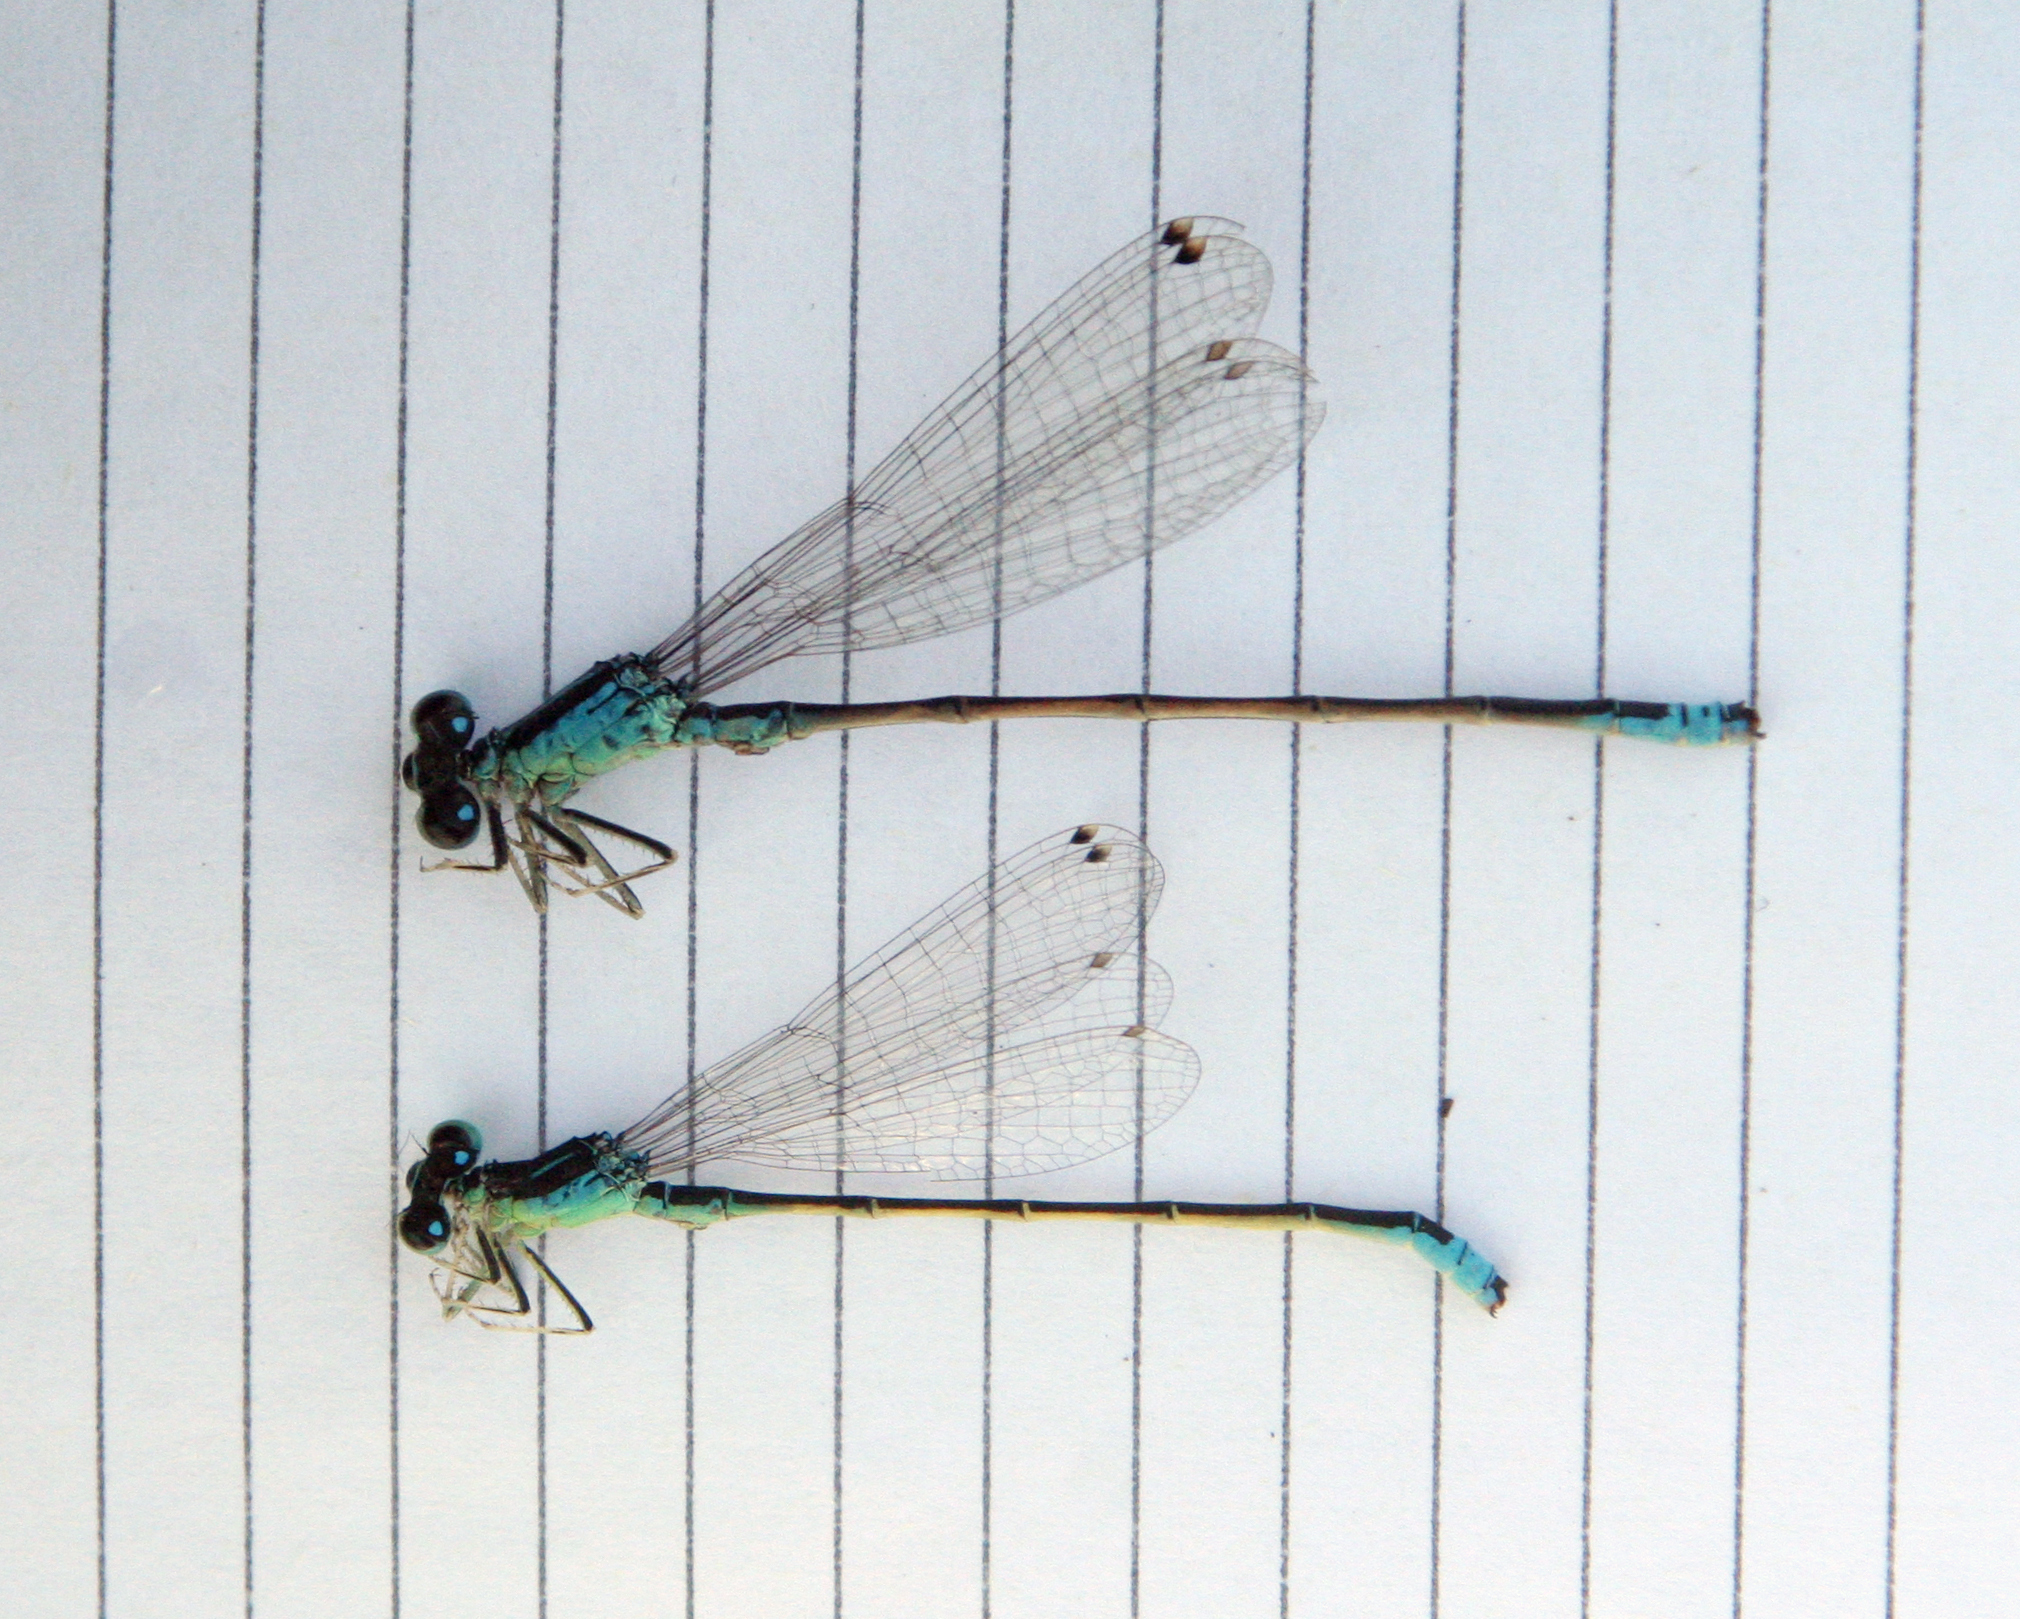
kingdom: Animalia
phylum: Arthropoda
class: Insecta
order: Odonata
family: Coenagrionidae
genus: Ischnura
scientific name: Ischnura pumilio
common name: Scarce blue-tailed damselfly
